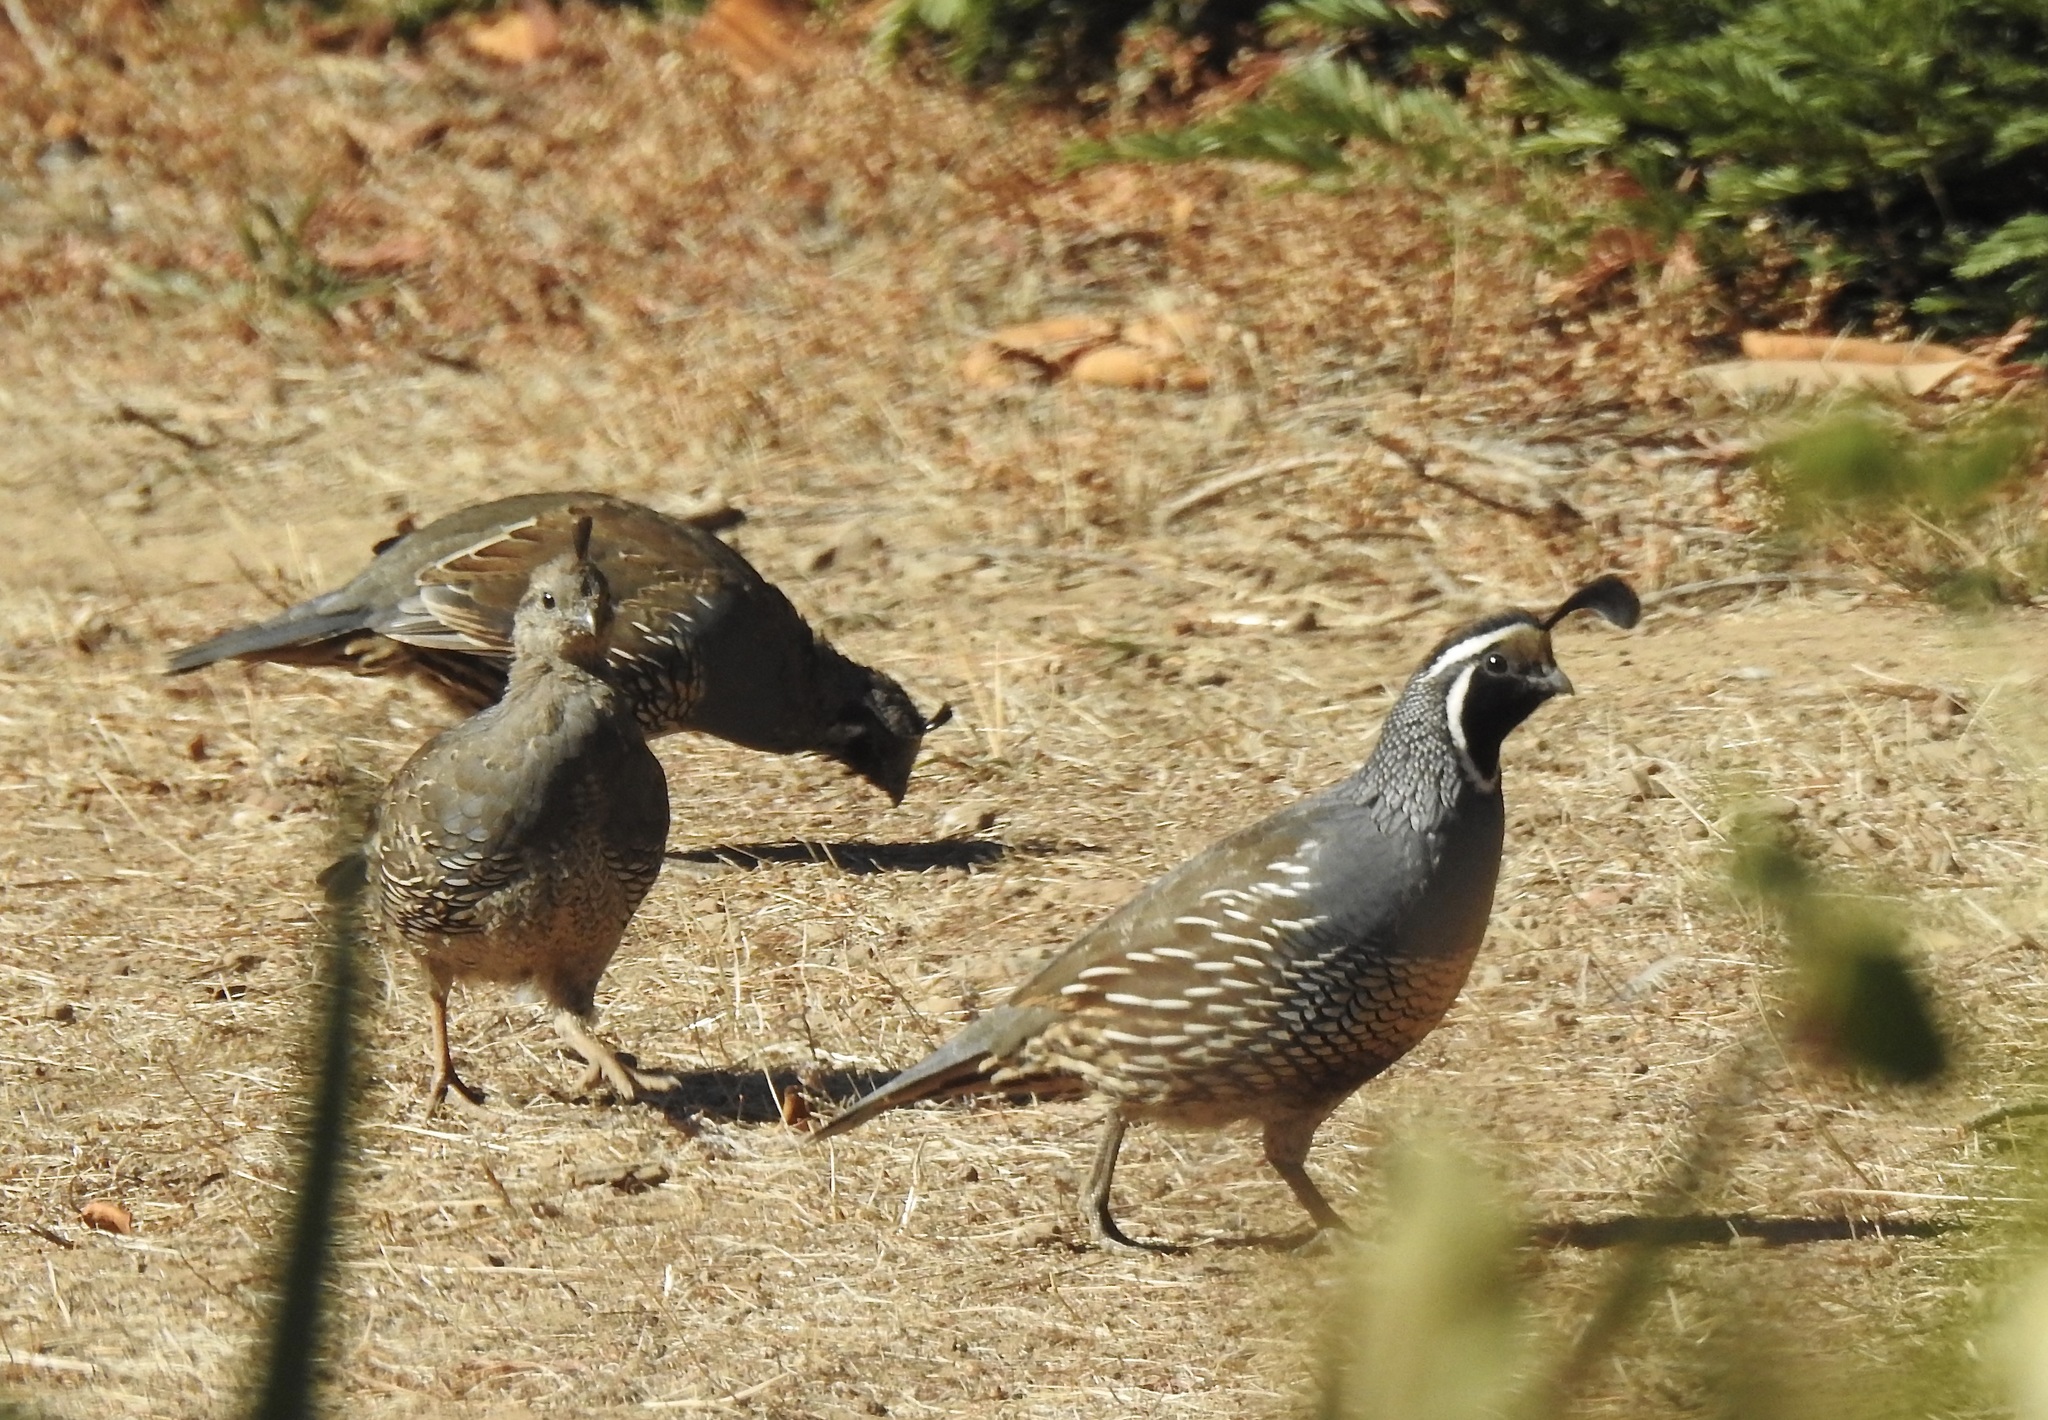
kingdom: Animalia
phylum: Chordata
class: Aves
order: Galliformes
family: Odontophoridae
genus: Callipepla
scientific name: Callipepla californica
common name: California quail
